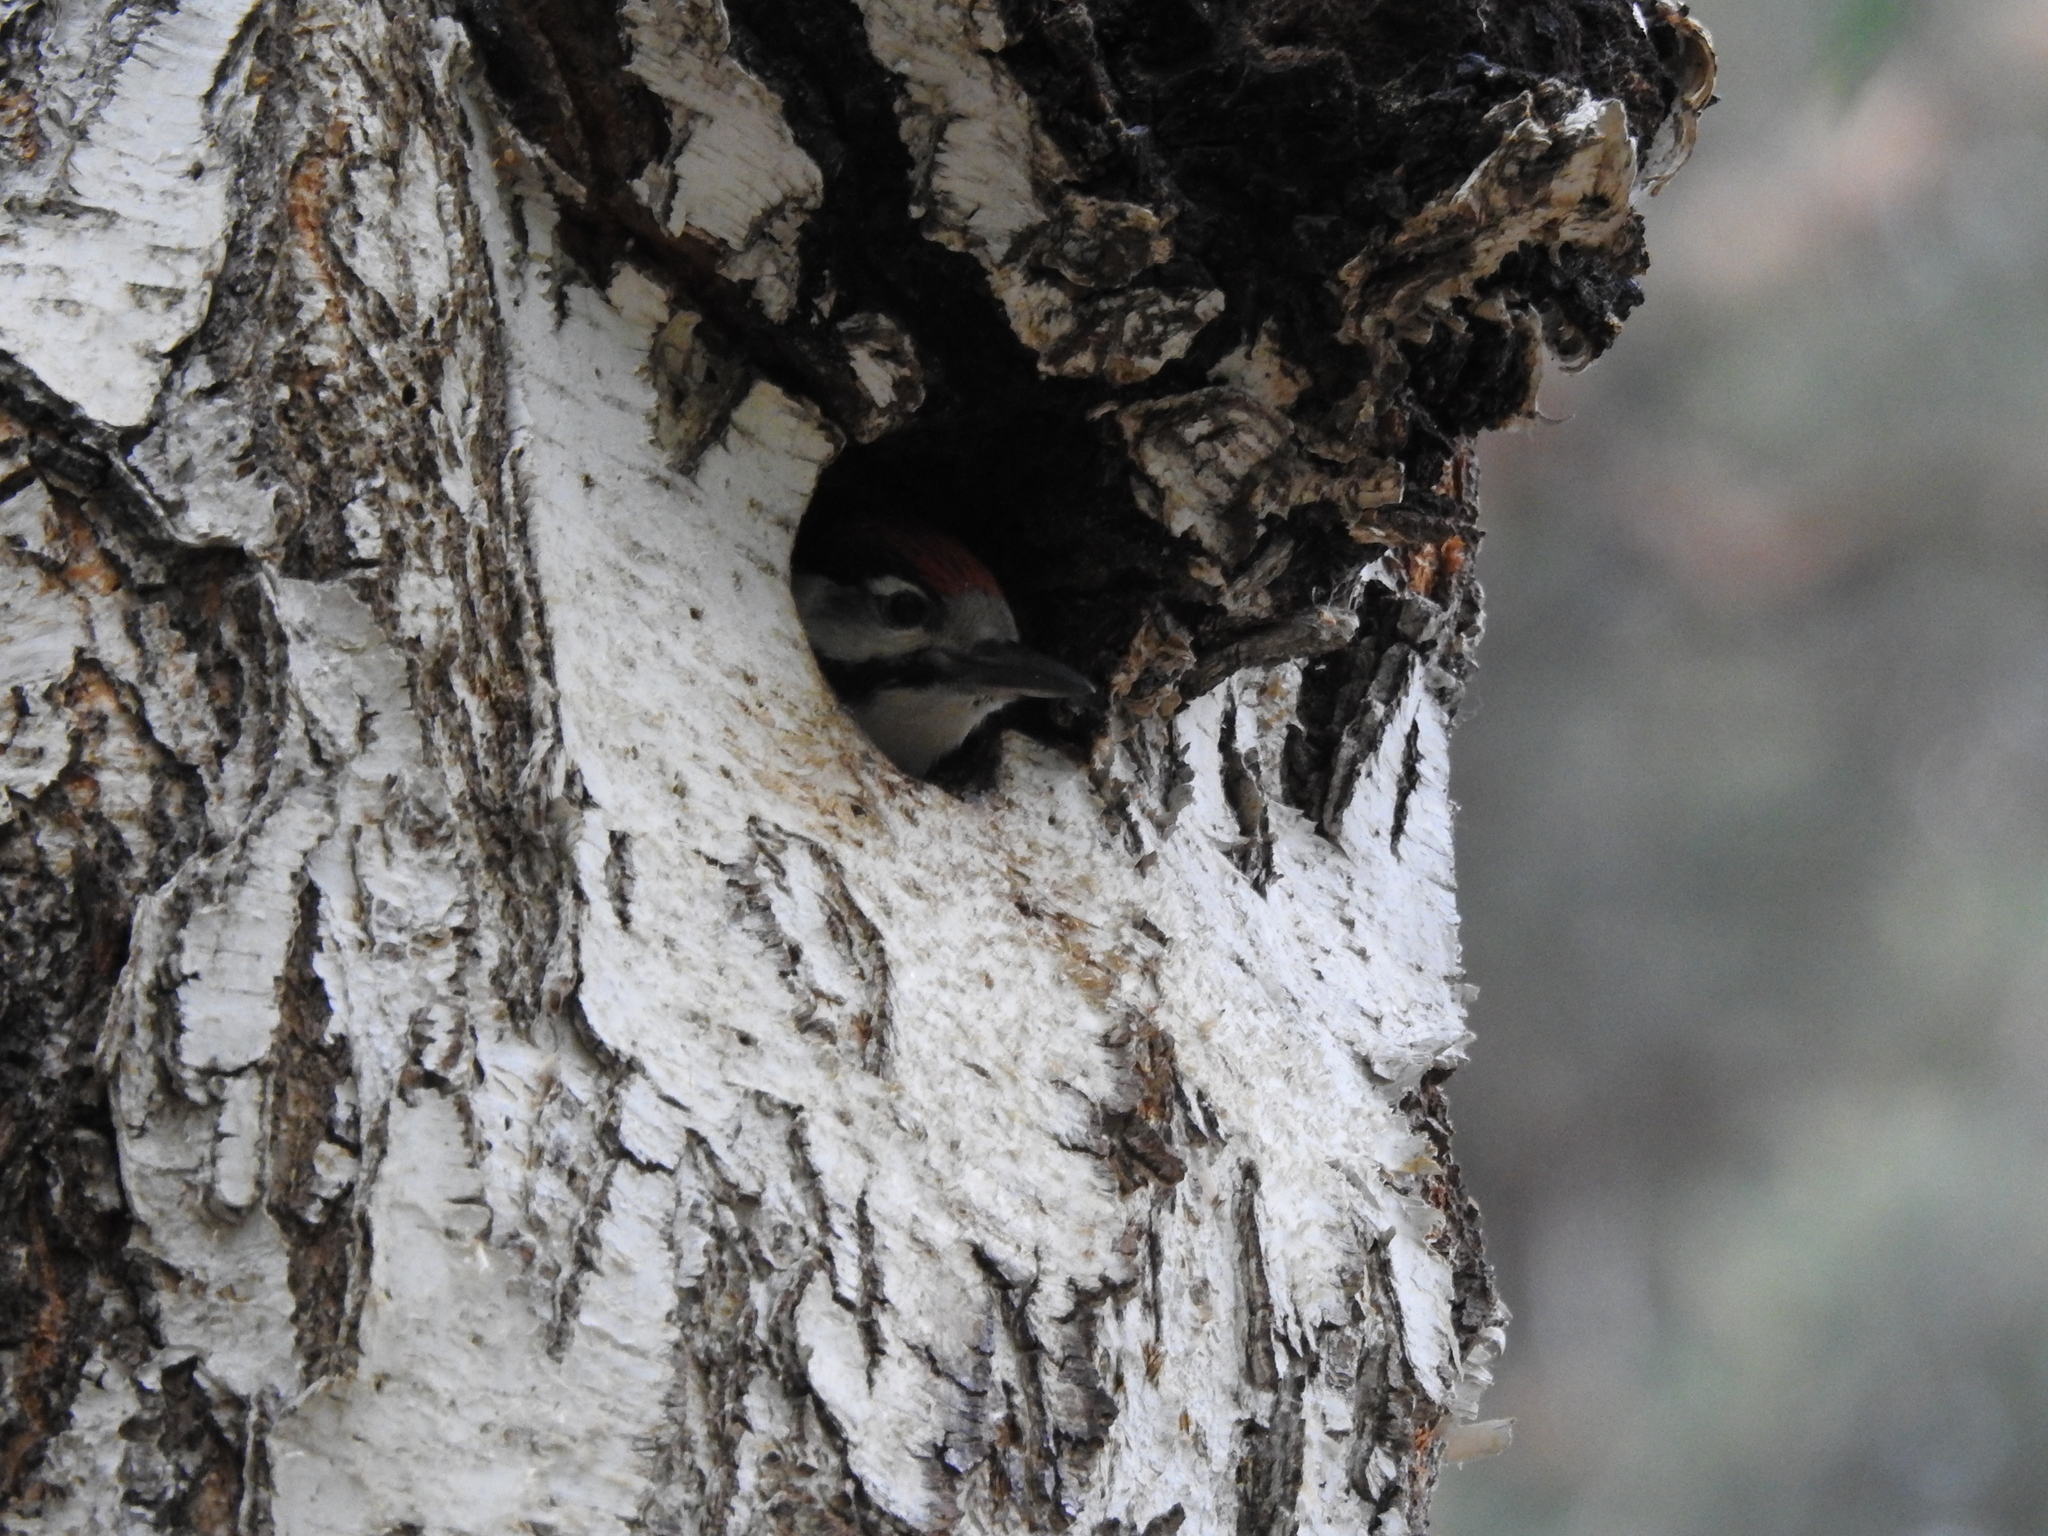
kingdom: Animalia
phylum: Chordata
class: Aves
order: Piciformes
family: Picidae
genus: Dendrocopos
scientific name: Dendrocopos major
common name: Great spotted woodpecker
